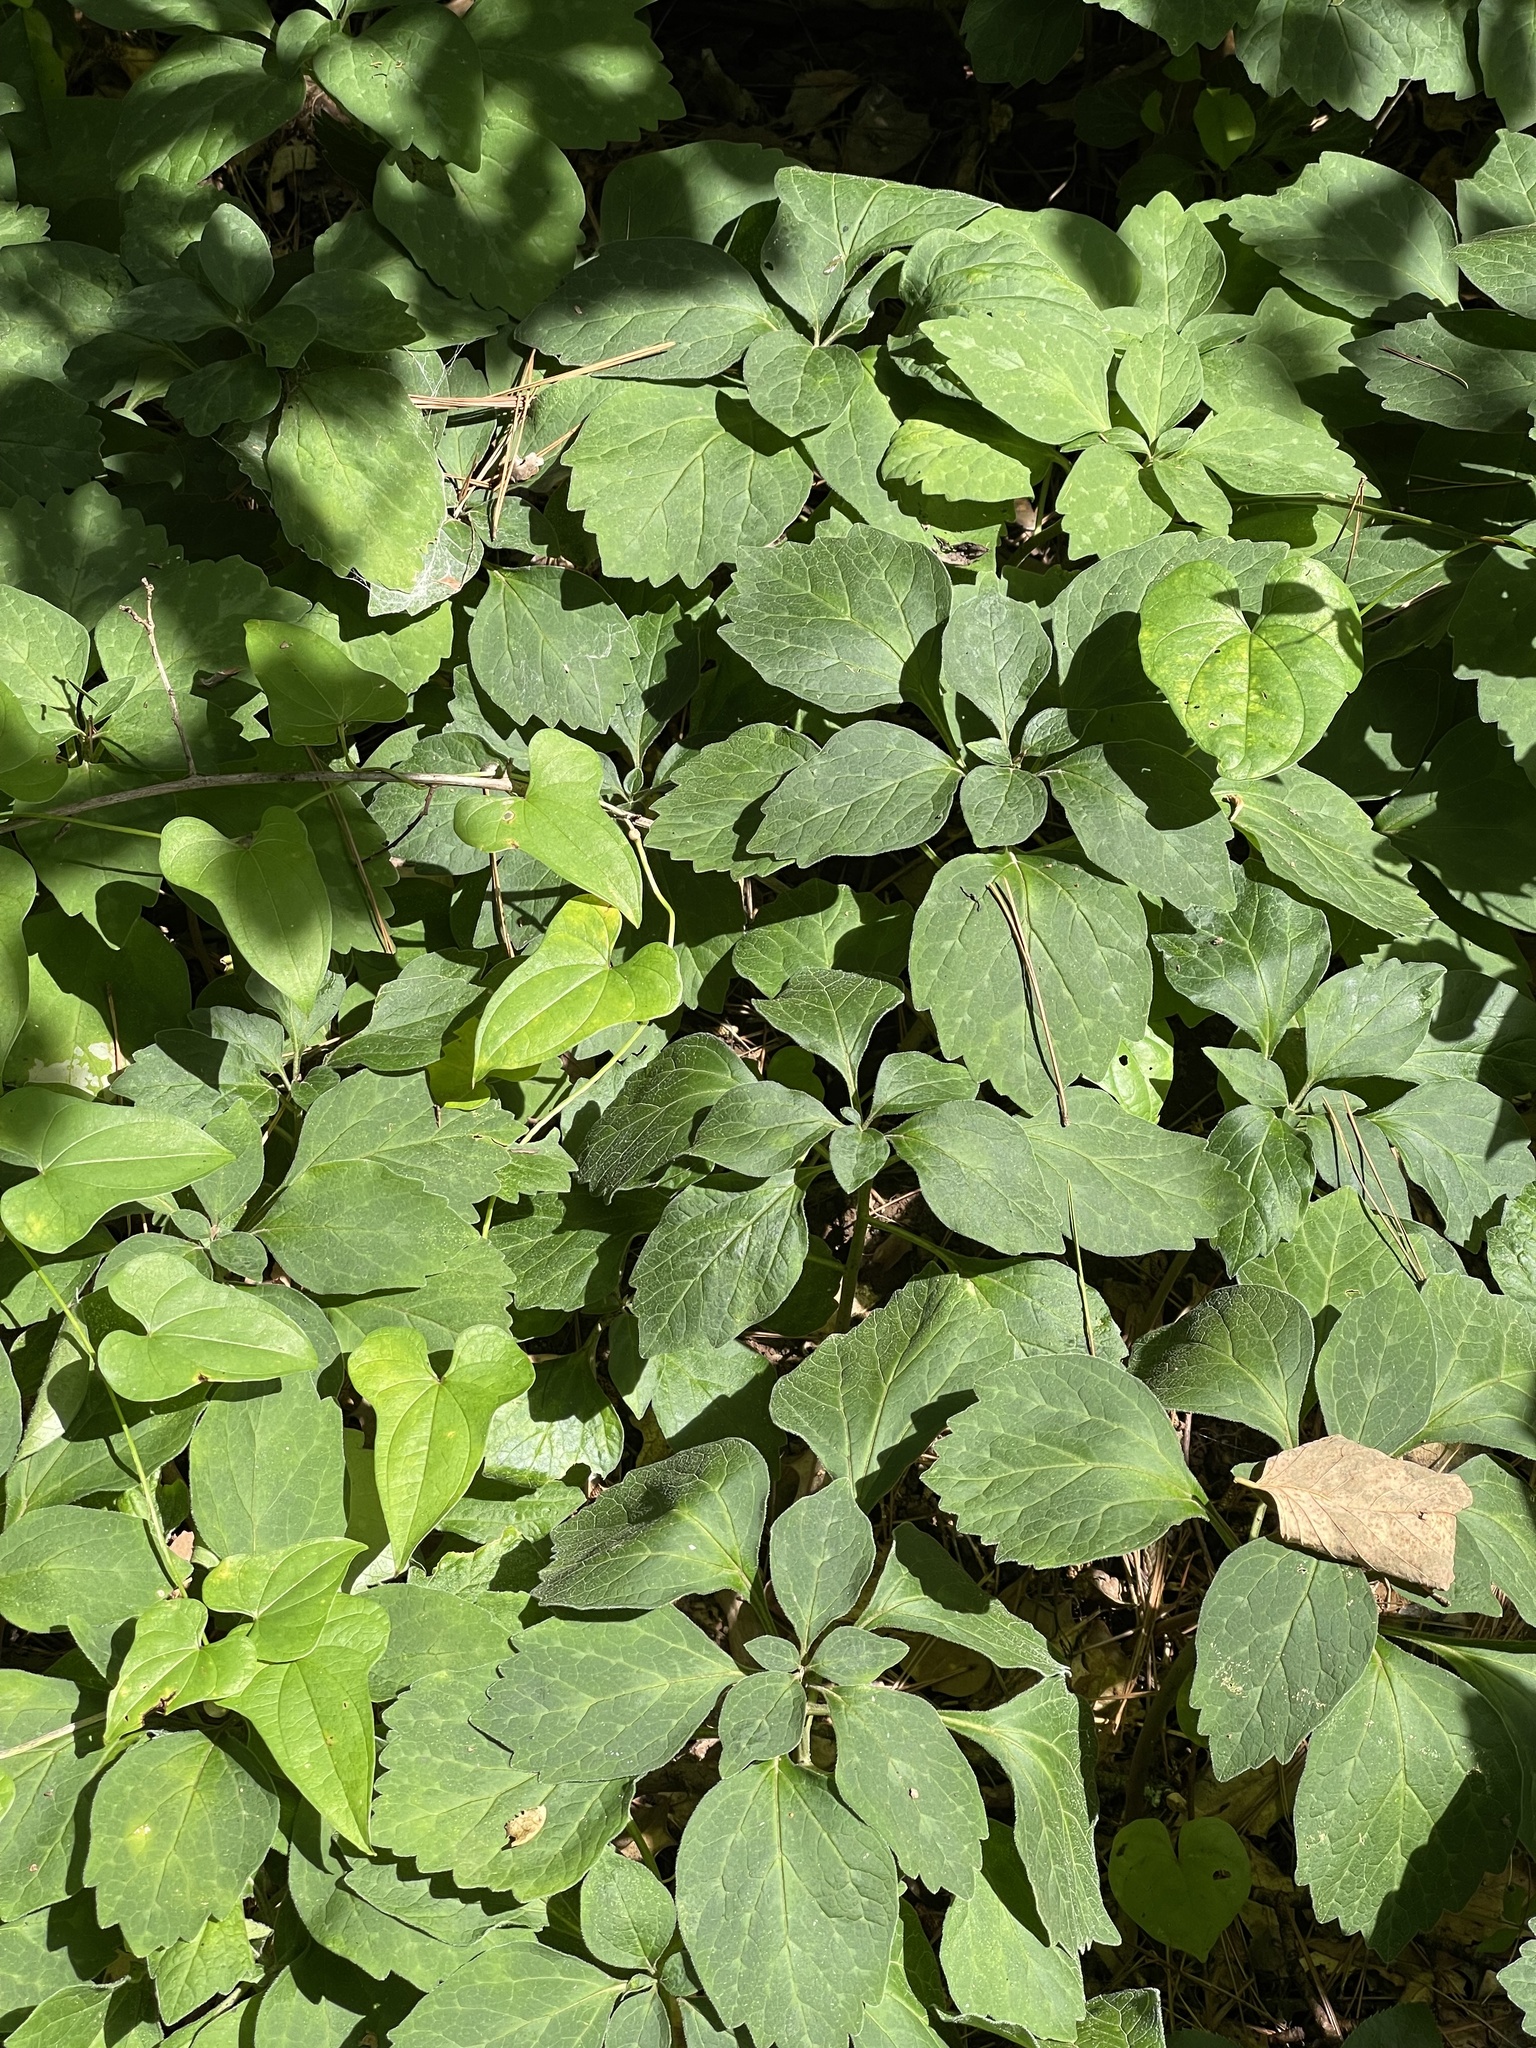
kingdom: Plantae
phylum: Tracheophyta
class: Magnoliopsida
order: Buxales
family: Buxaceae
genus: Pachysandra
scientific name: Pachysandra procumbens
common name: Mountain-spurge
